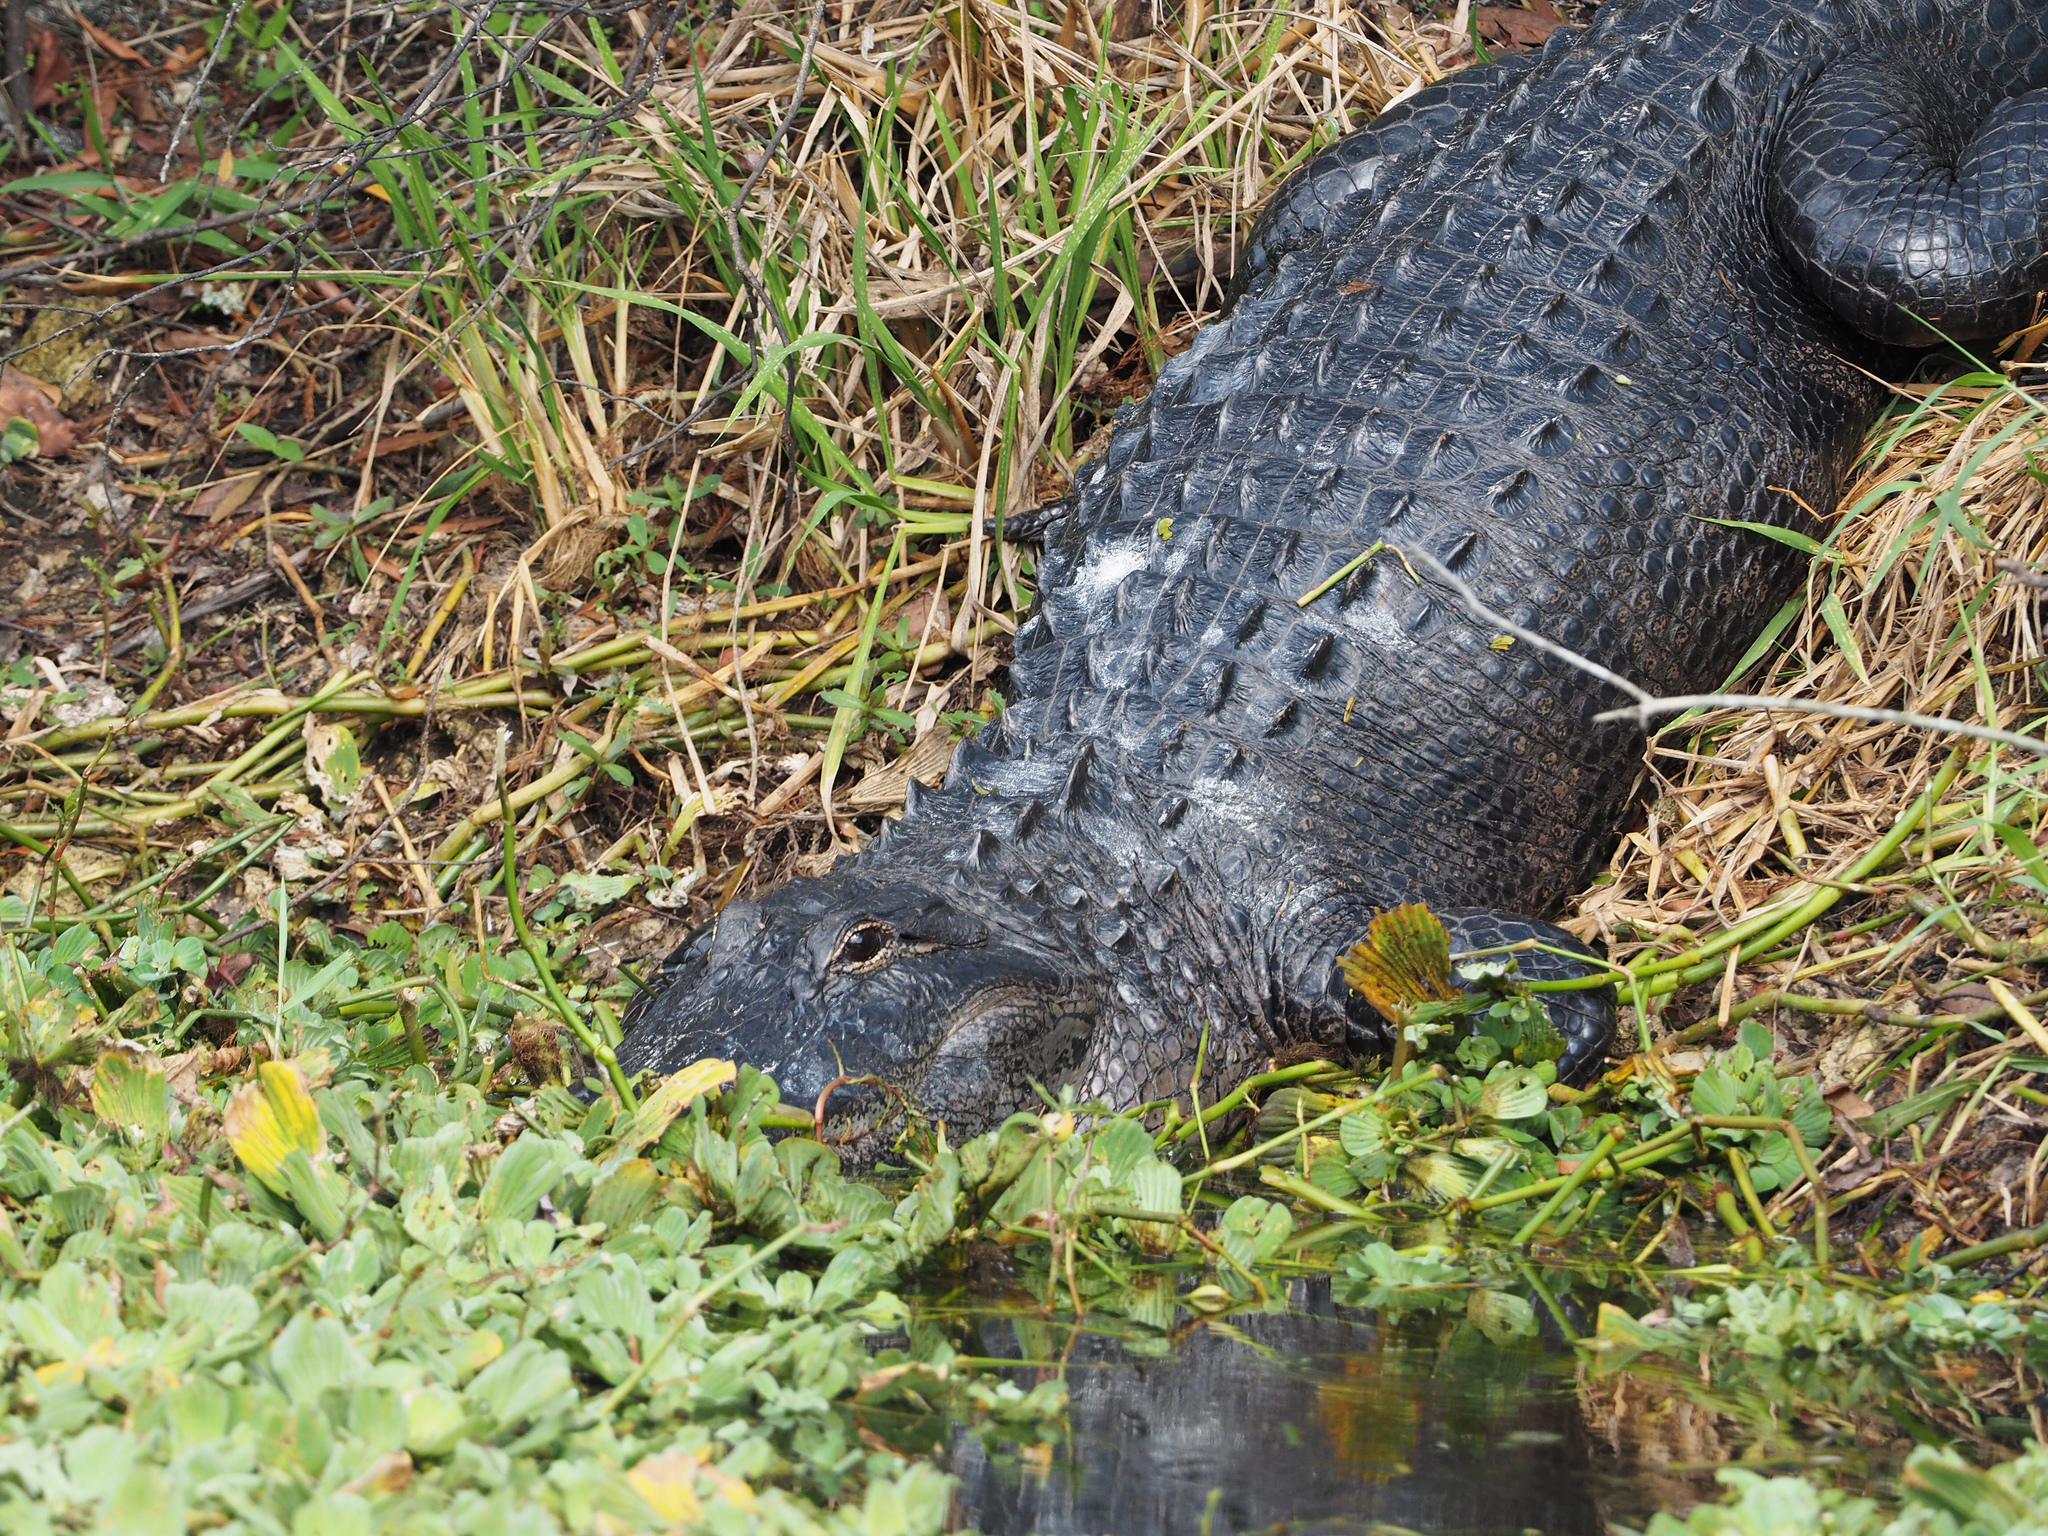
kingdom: Animalia
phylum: Chordata
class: Crocodylia
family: Alligatoridae
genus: Alligator
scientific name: Alligator mississippiensis
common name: American alligator
